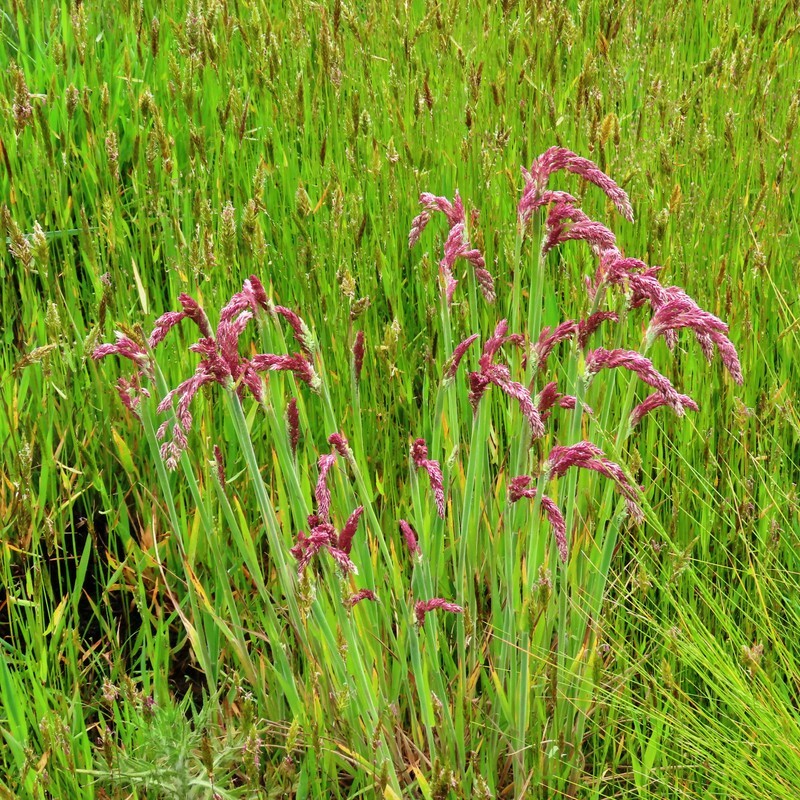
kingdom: Plantae
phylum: Tracheophyta
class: Liliopsida
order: Poales
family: Poaceae
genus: Holcus
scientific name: Holcus lanatus
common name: Yorkshire-fog
